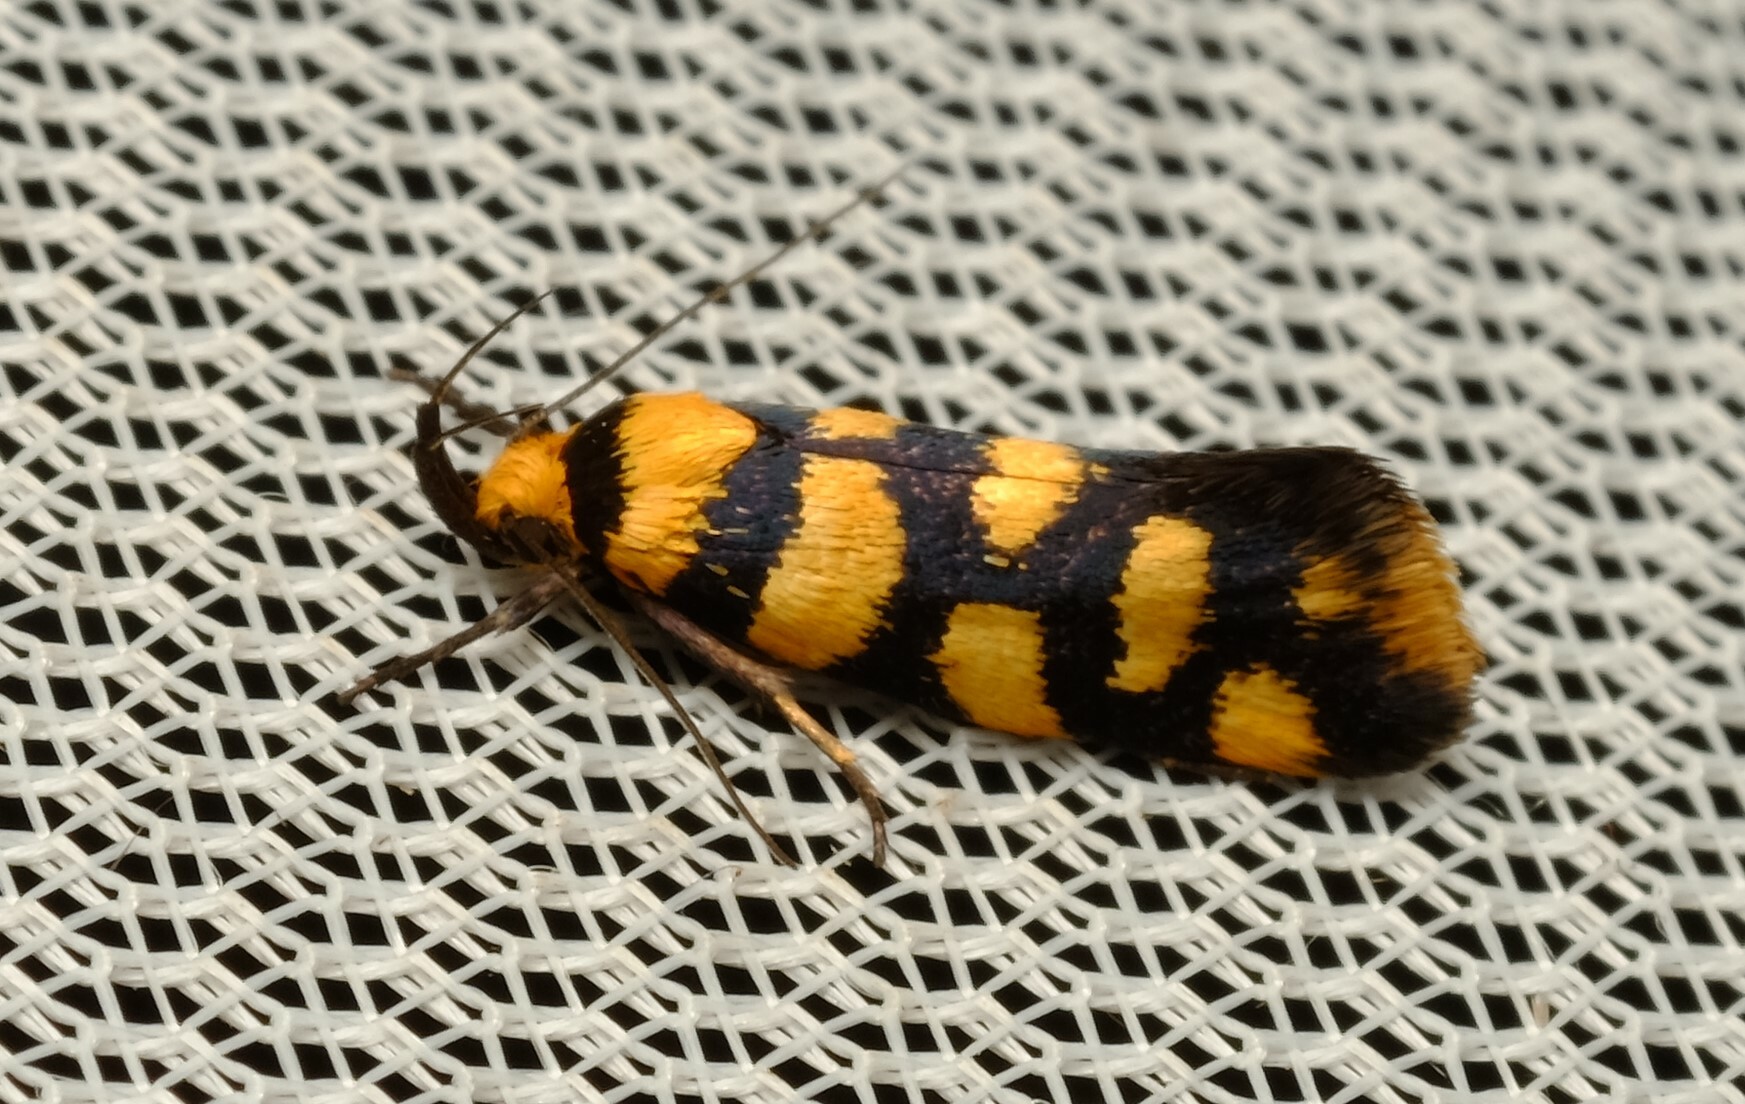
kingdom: Animalia
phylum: Arthropoda
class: Insecta
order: Lepidoptera
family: Oecophoridae
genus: Tanyzancla
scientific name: Tanyzancla argutella
